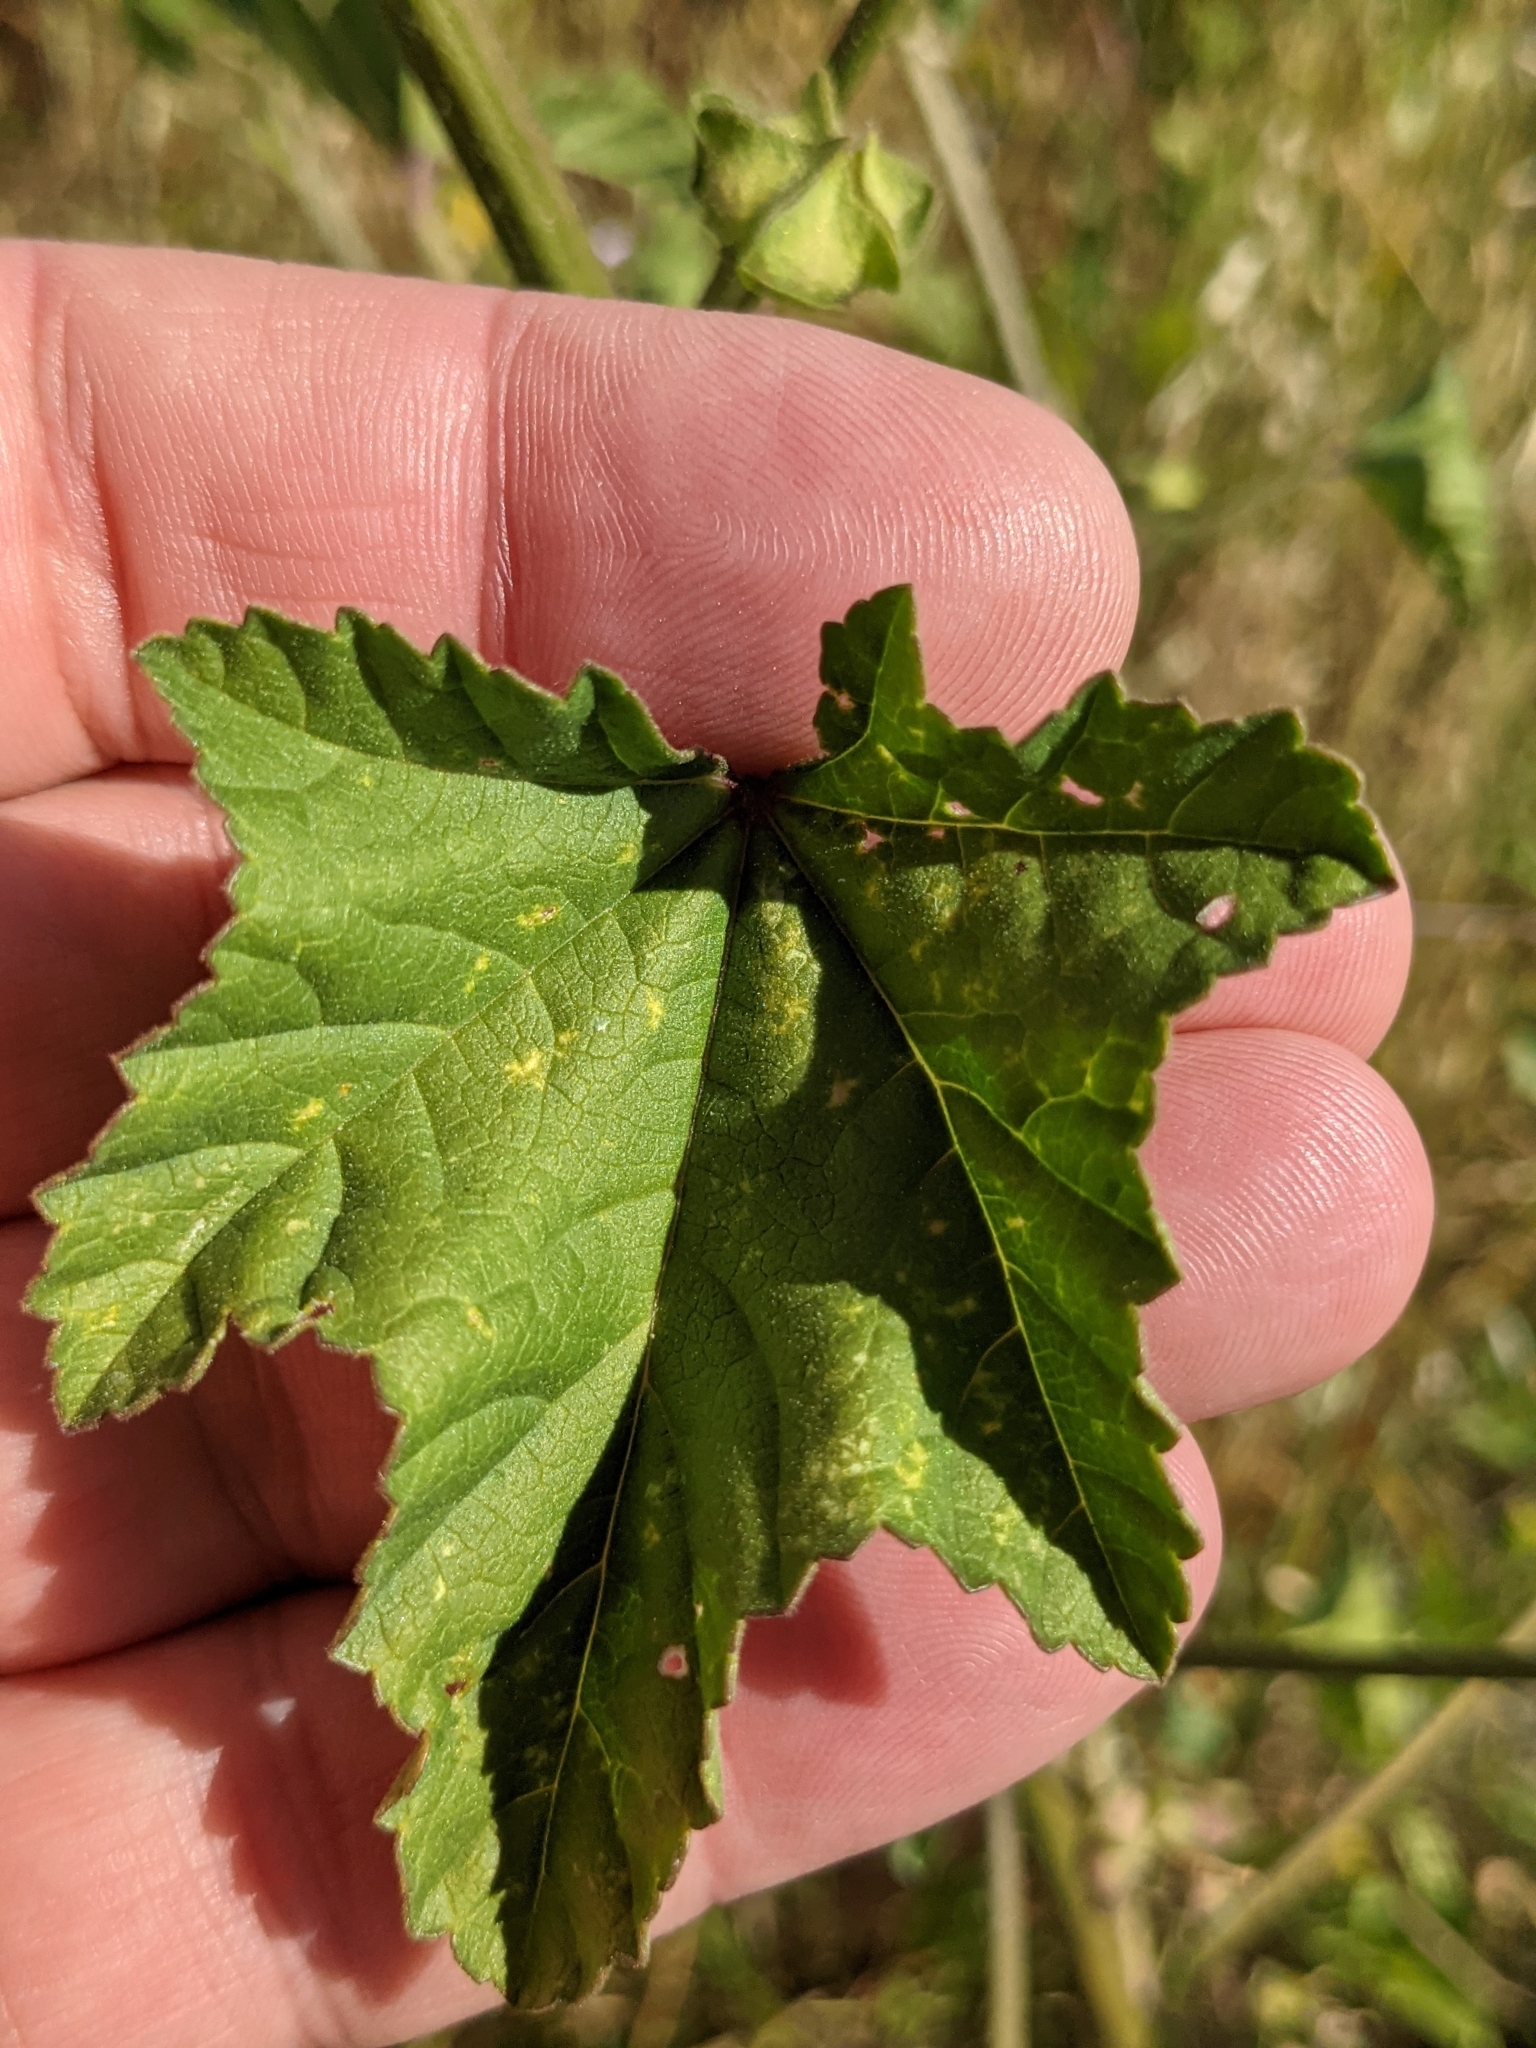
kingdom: Plantae
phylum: Tracheophyta
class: Magnoliopsida
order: Malvales
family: Malvaceae
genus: Malva
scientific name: Malva multiflora
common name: Cheeseweed
